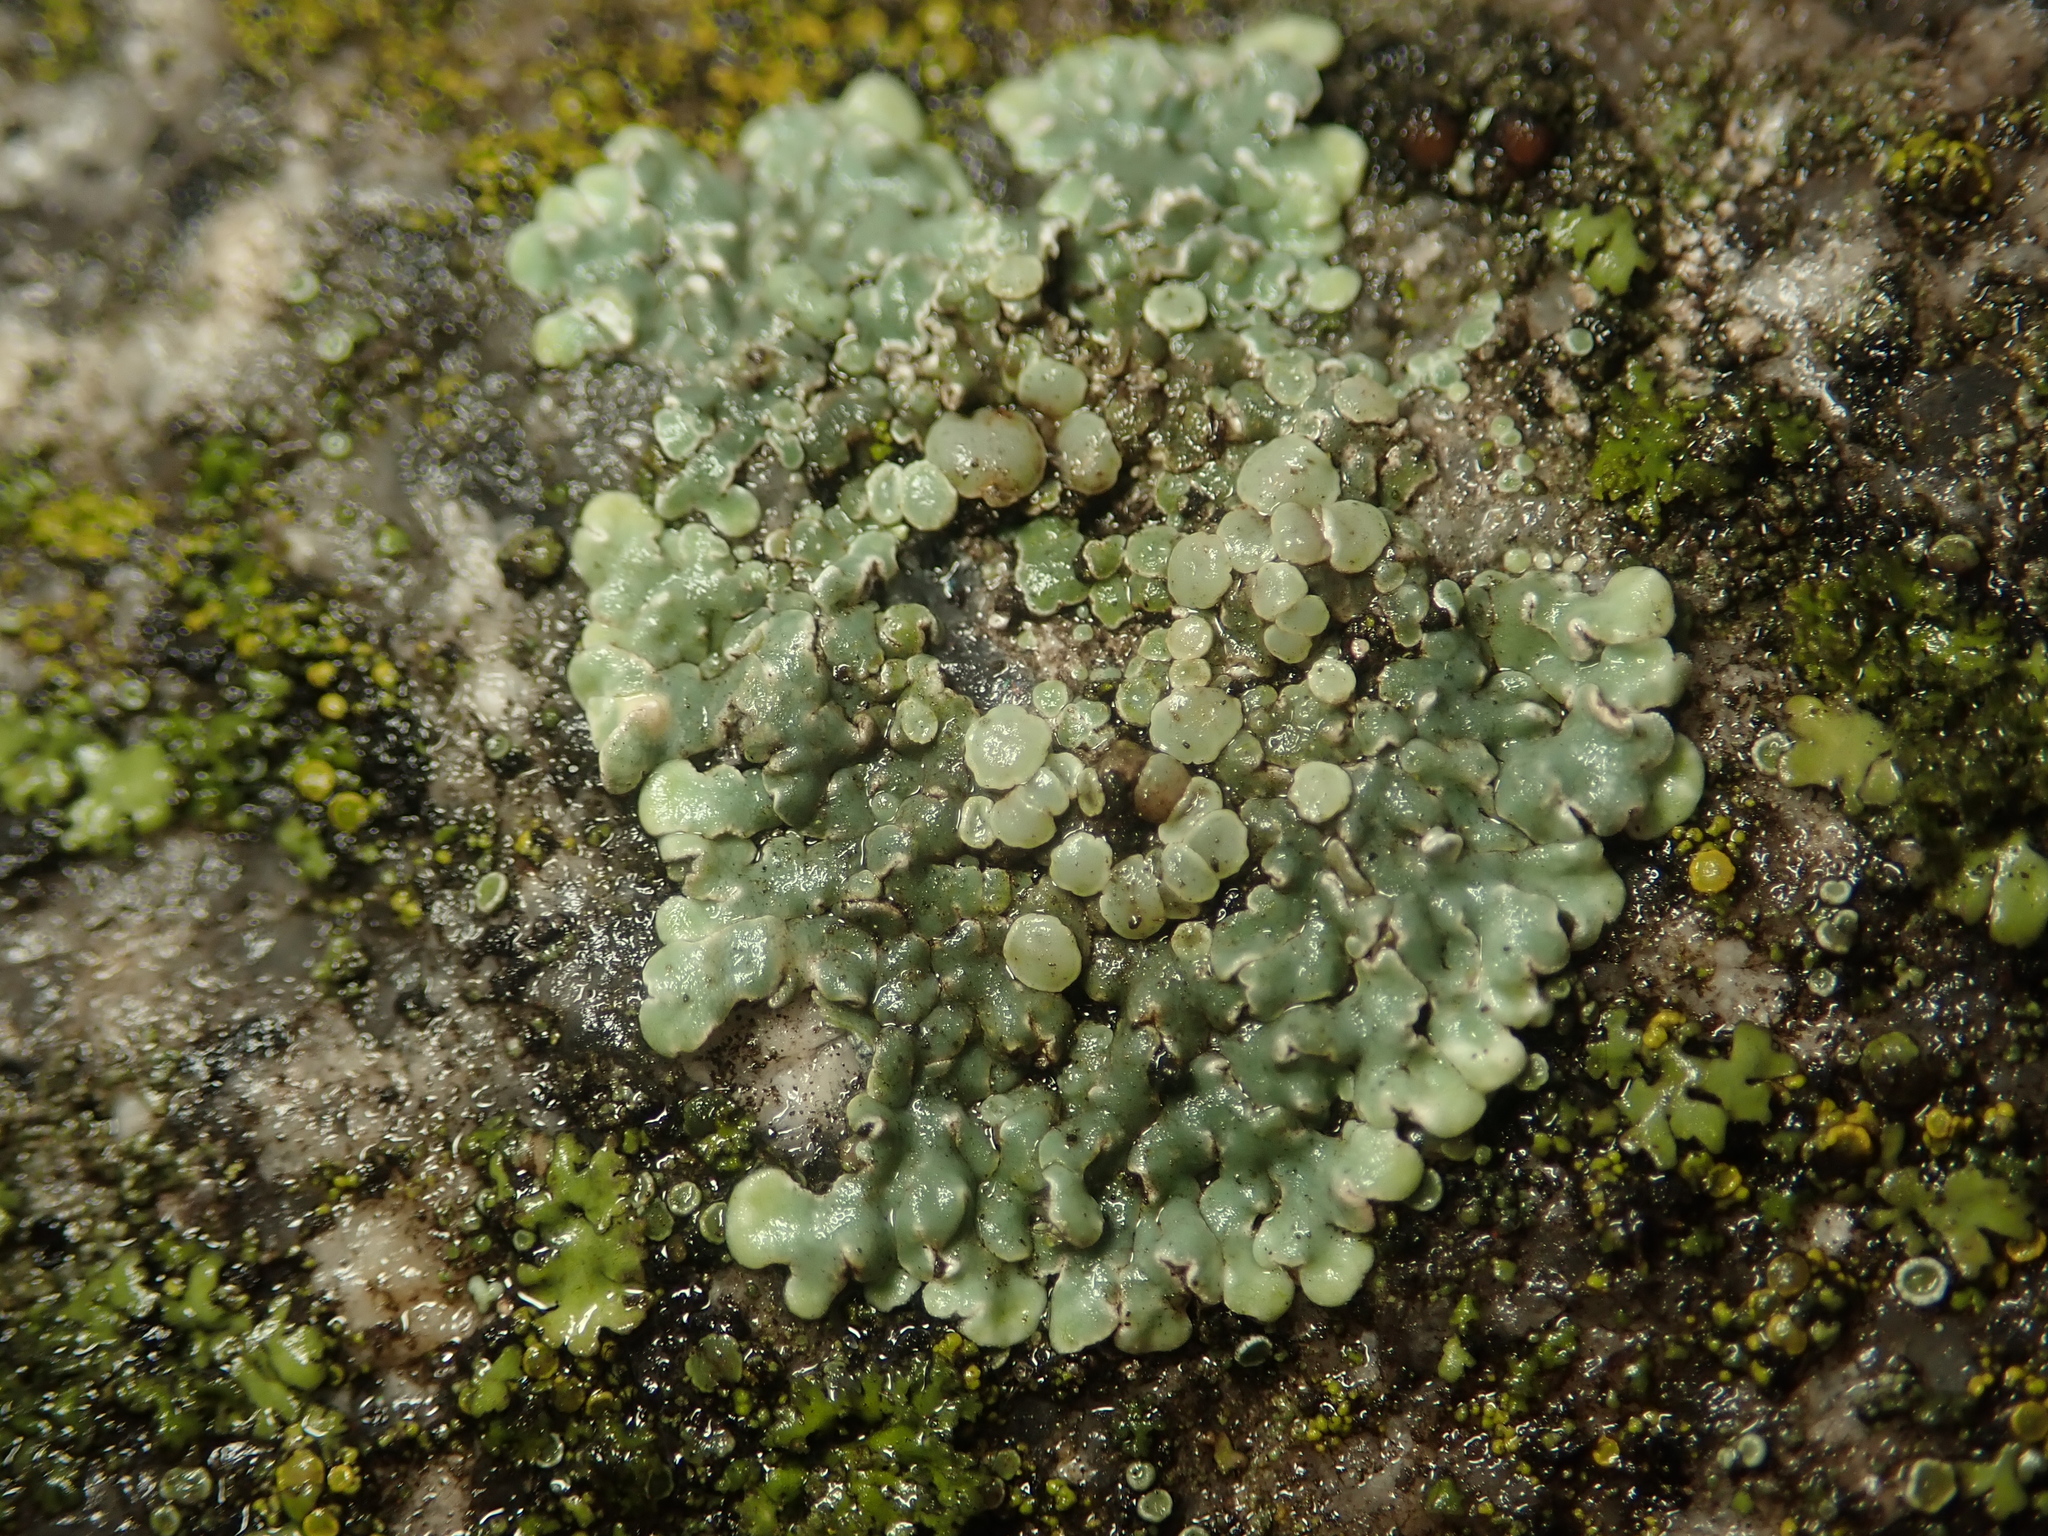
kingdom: Fungi
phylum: Ascomycota
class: Lecanoromycetes
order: Lecanorales
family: Lecanoraceae
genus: Protoparmeliopsis
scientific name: Protoparmeliopsis muralis
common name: Stonewall rim lichen
